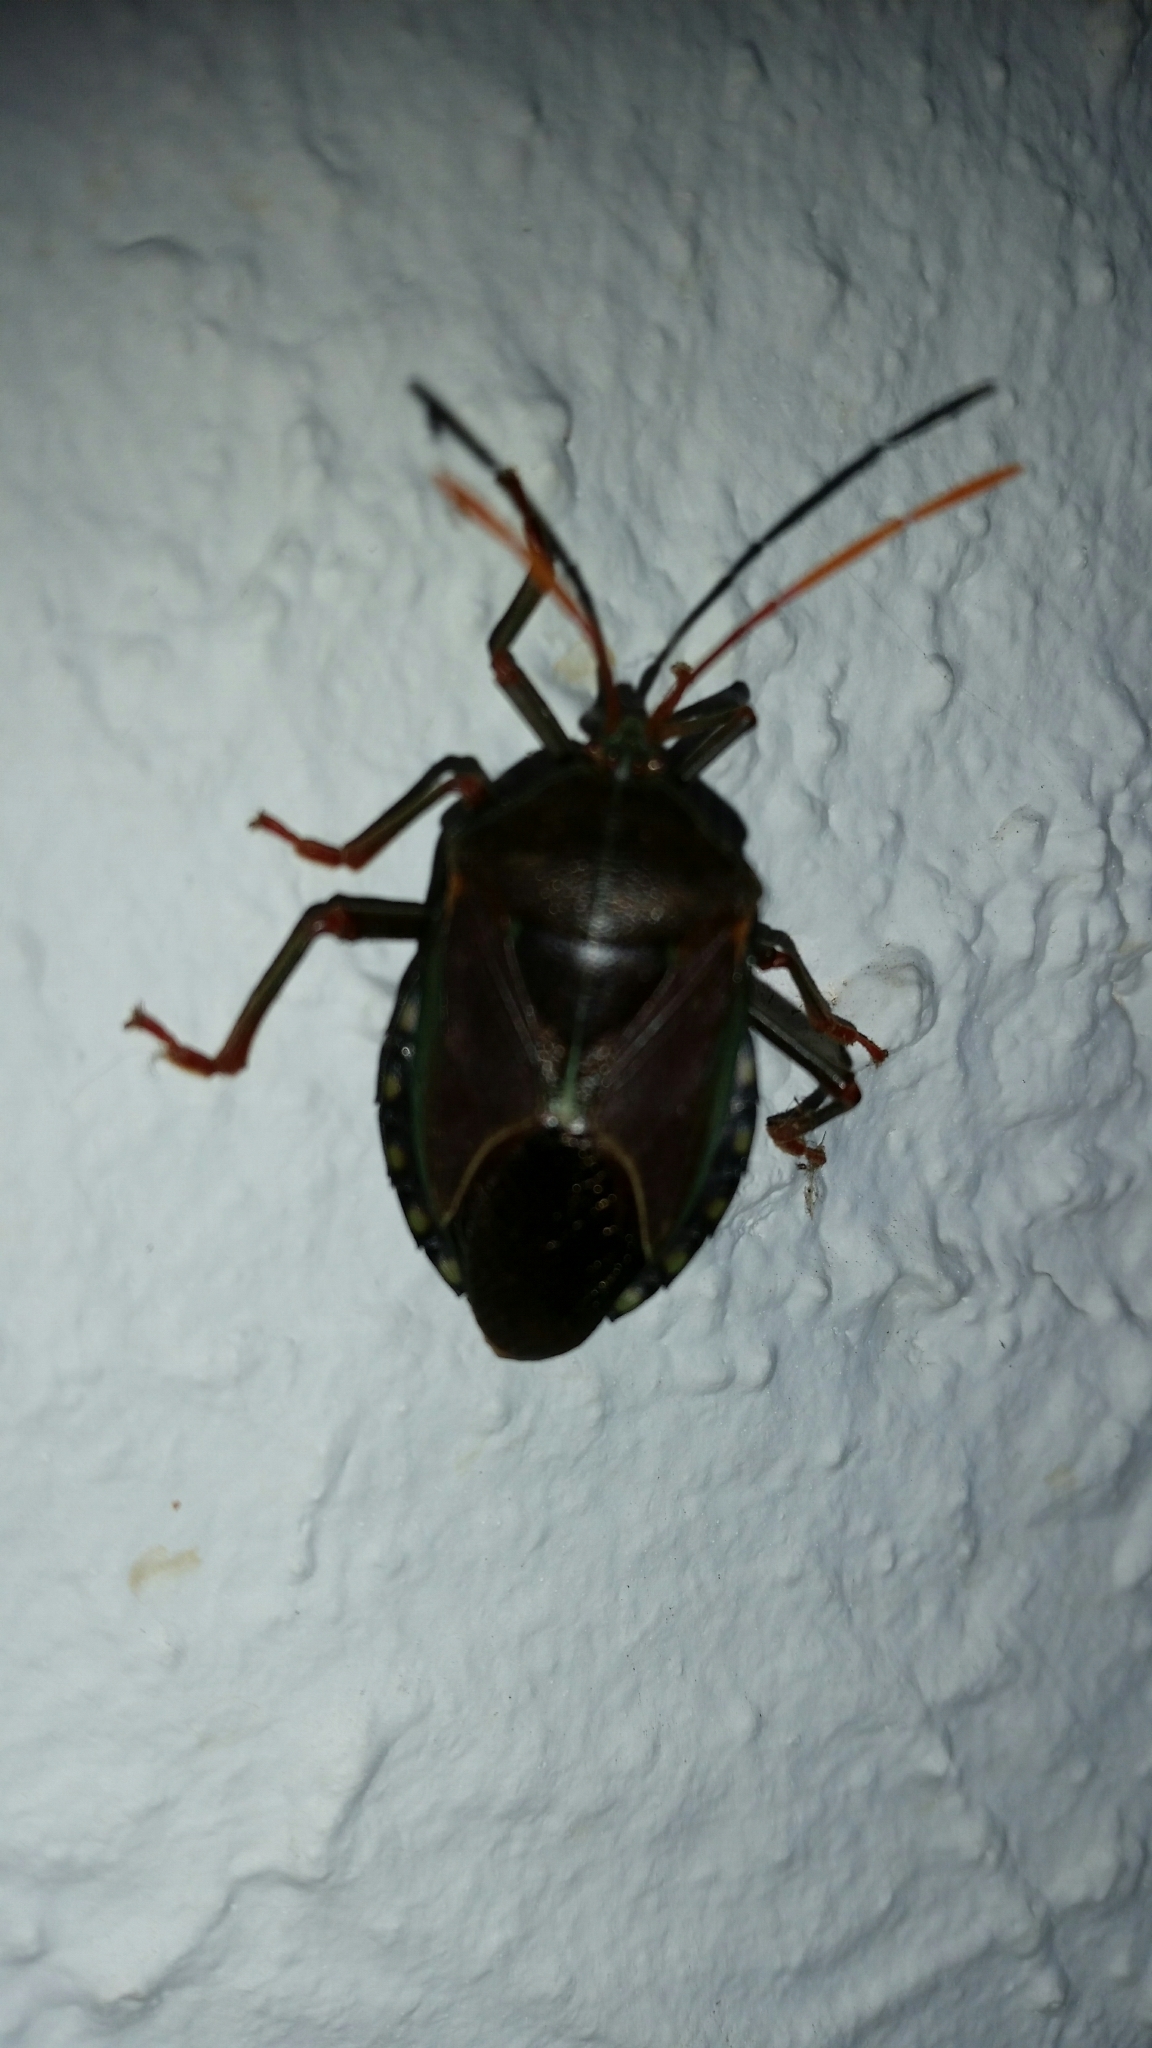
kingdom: Animalia
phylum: Arthropoda
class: Insecta
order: Hemiptera
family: Tessaratomidae
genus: Musgraveia
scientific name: Musgraveia sulciventris
